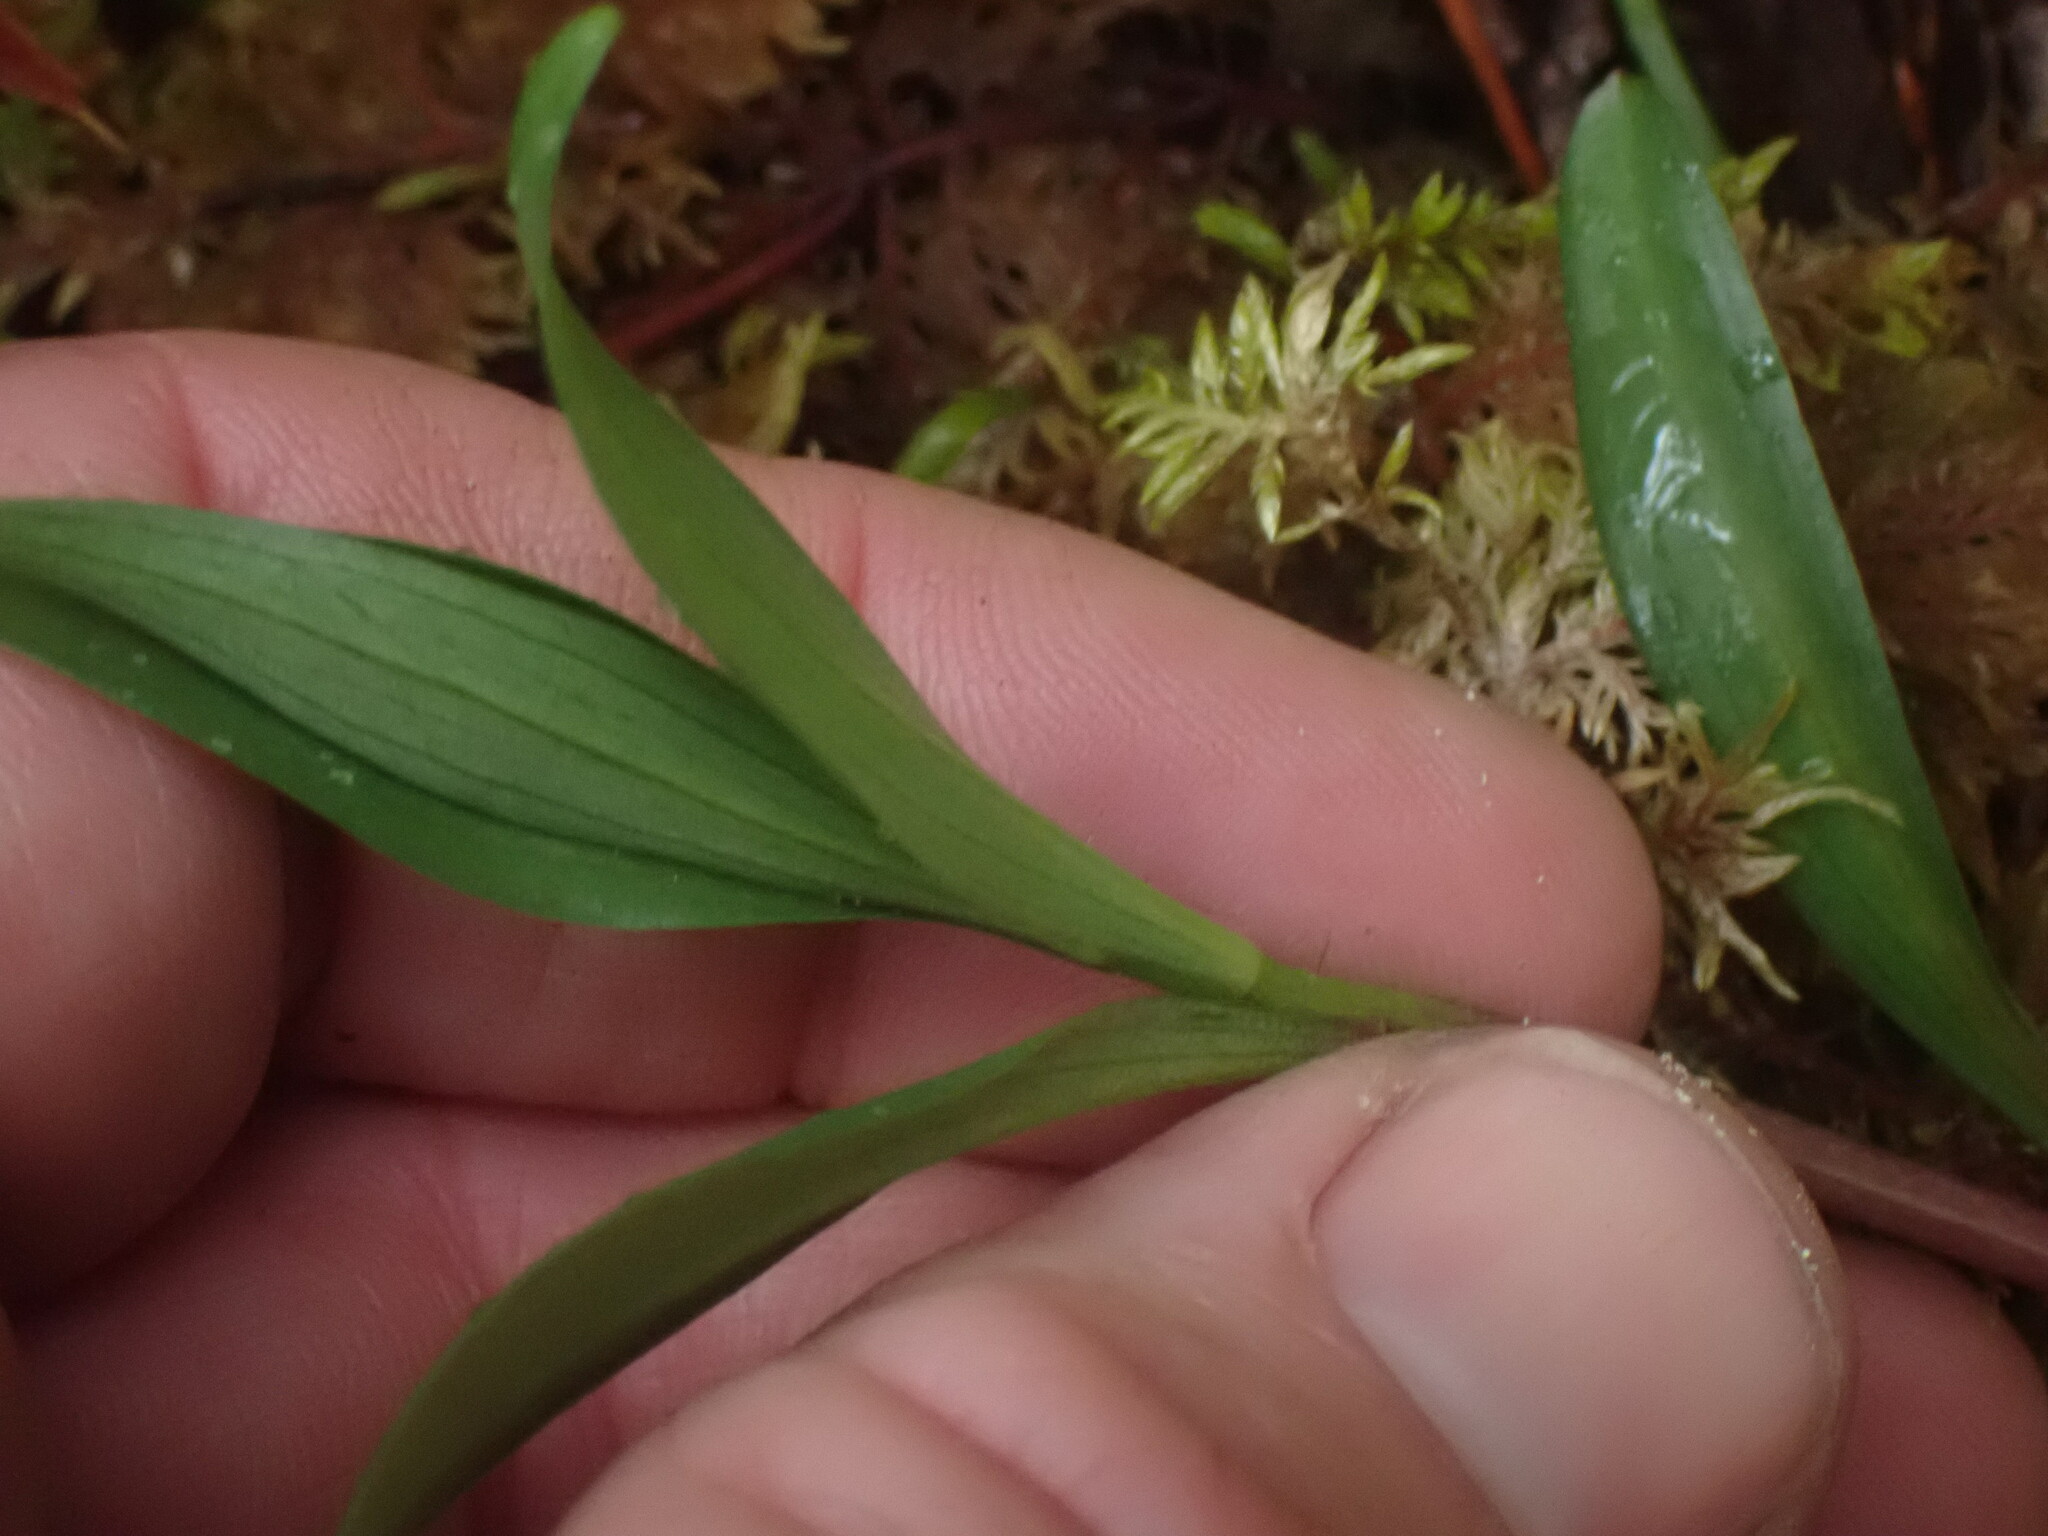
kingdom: Plantae
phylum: Tracheophyta
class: Liliopsida
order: Liliales
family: Liliaceae
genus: Fritillaria
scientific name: Fritillaria affinis
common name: Ojai fritillary
